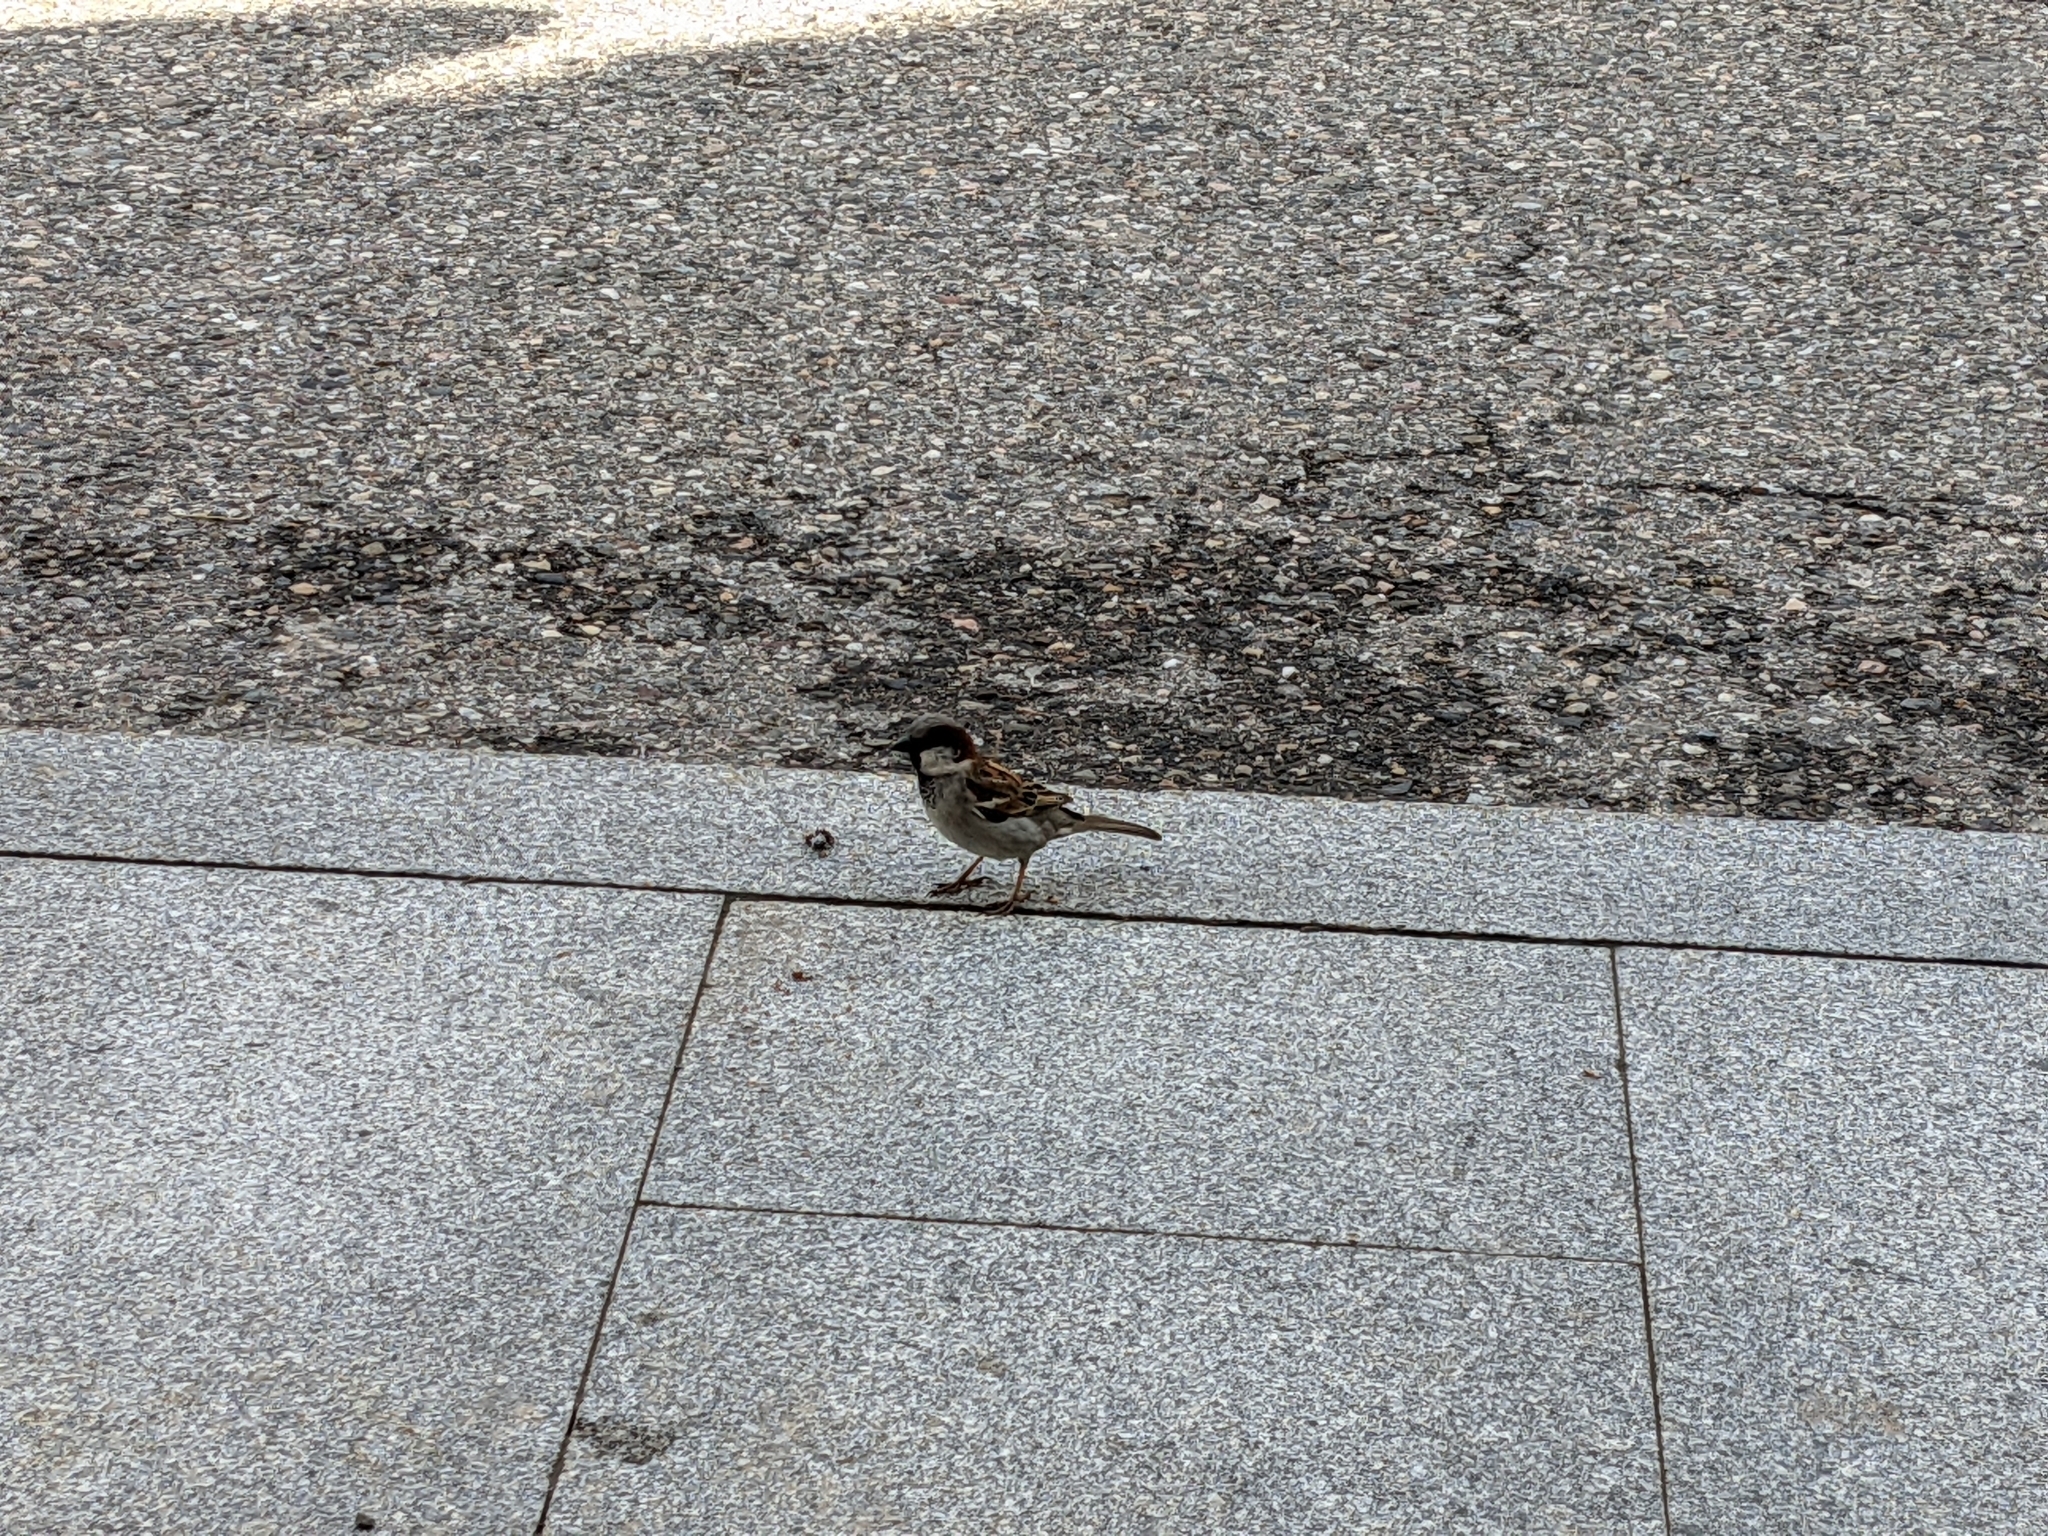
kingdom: Animalia
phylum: Chordata
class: Aves
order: Passeriformes
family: Passeridae
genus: Passer
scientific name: Passer domesticus
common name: House sparrow
